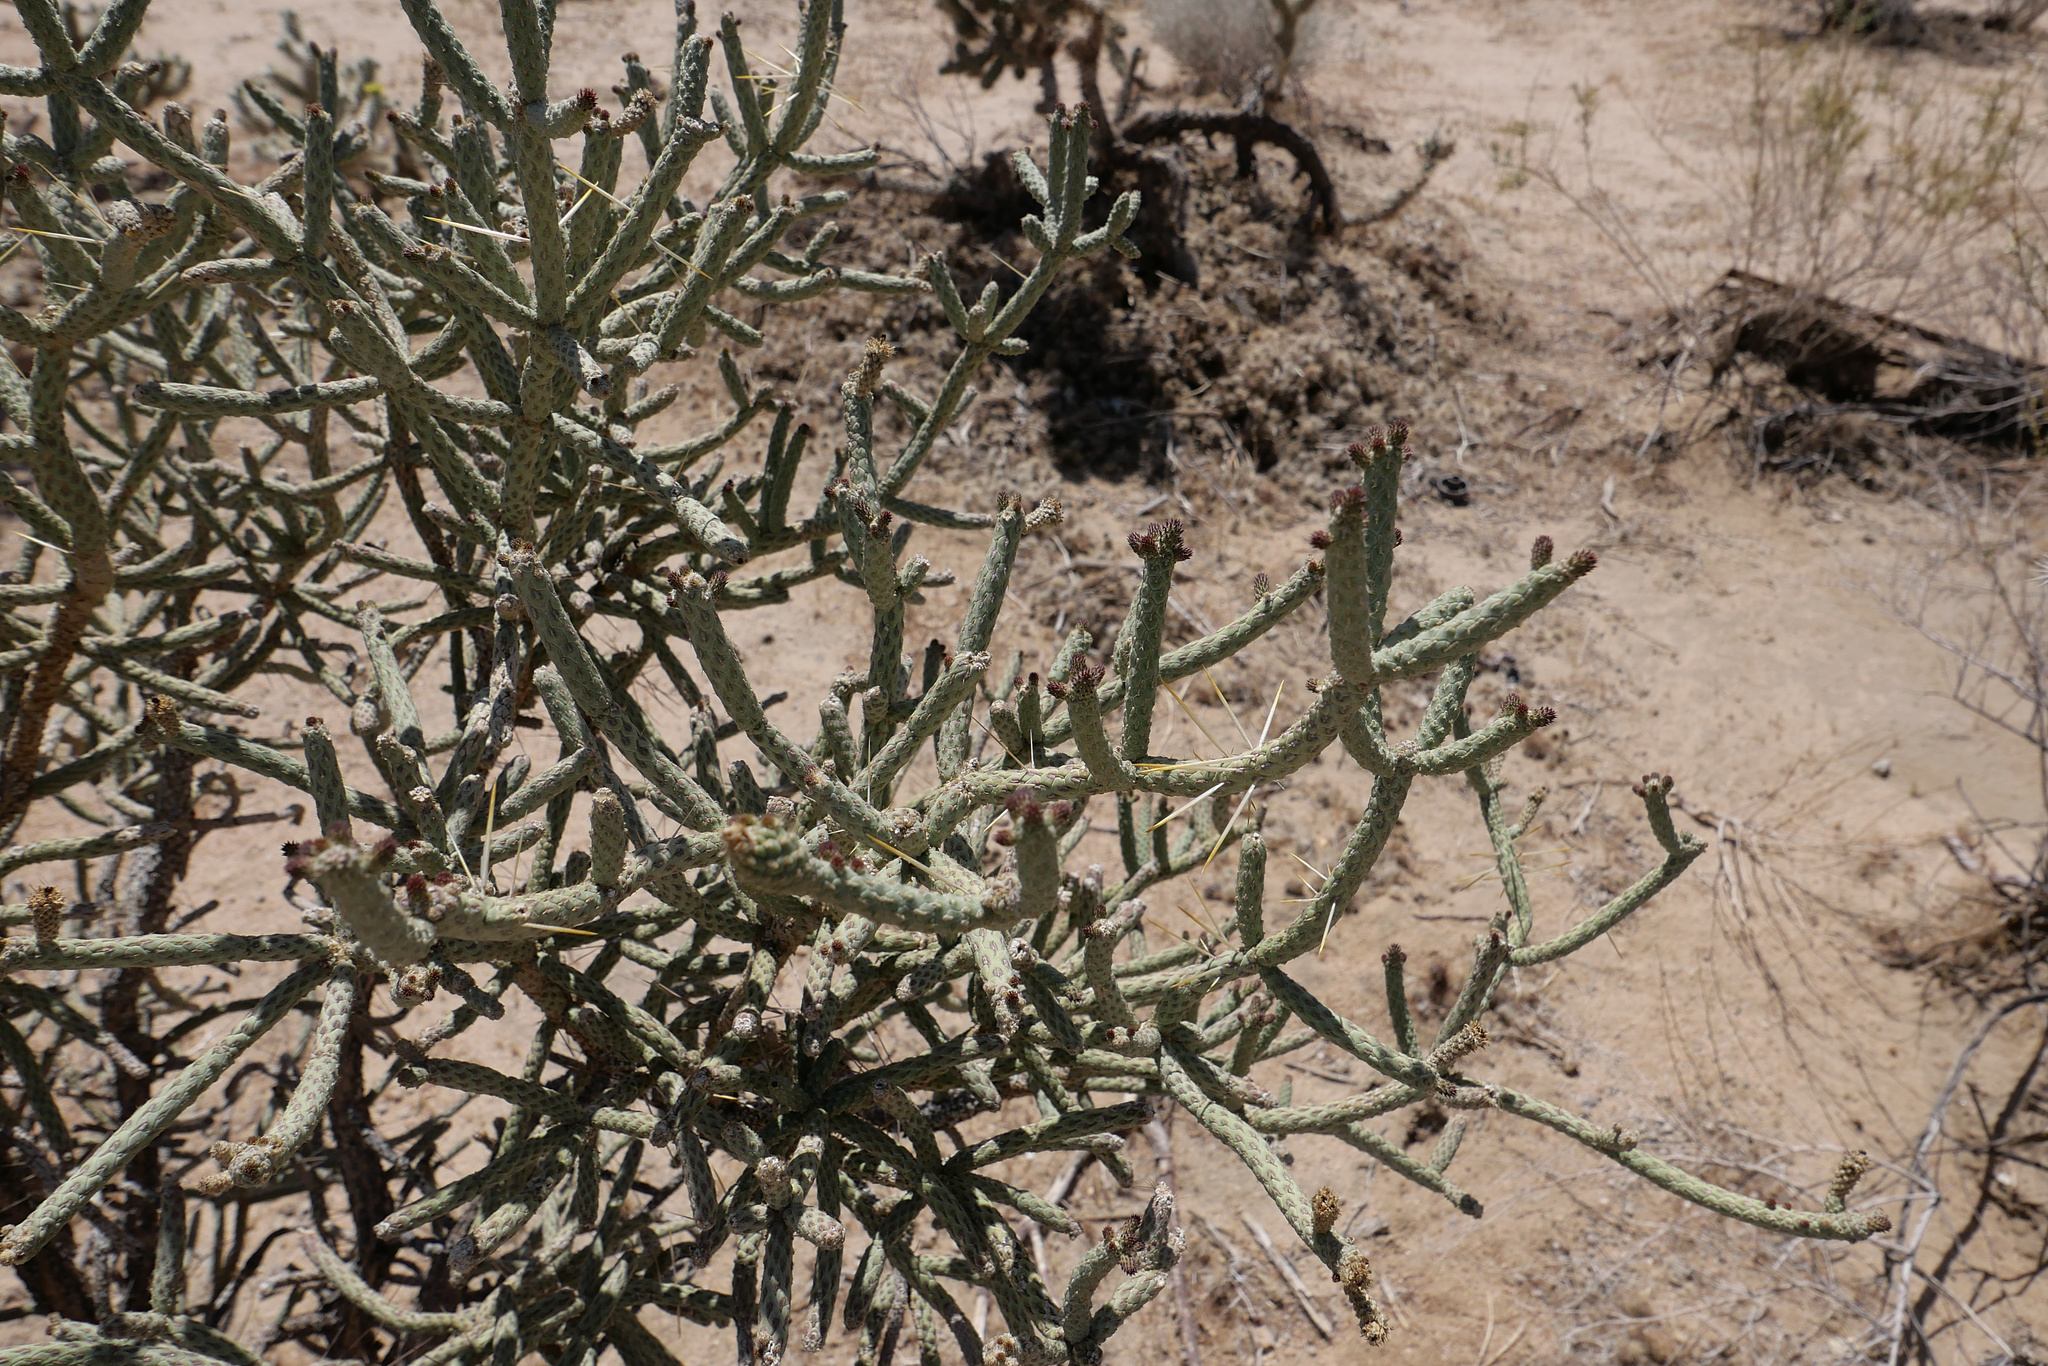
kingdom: Plantae
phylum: Tracheophyta
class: Magnoliopsida
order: Caryophyllales
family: Cactaceae
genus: Cylindropuntia
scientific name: Cylindropuntia ramosissima
